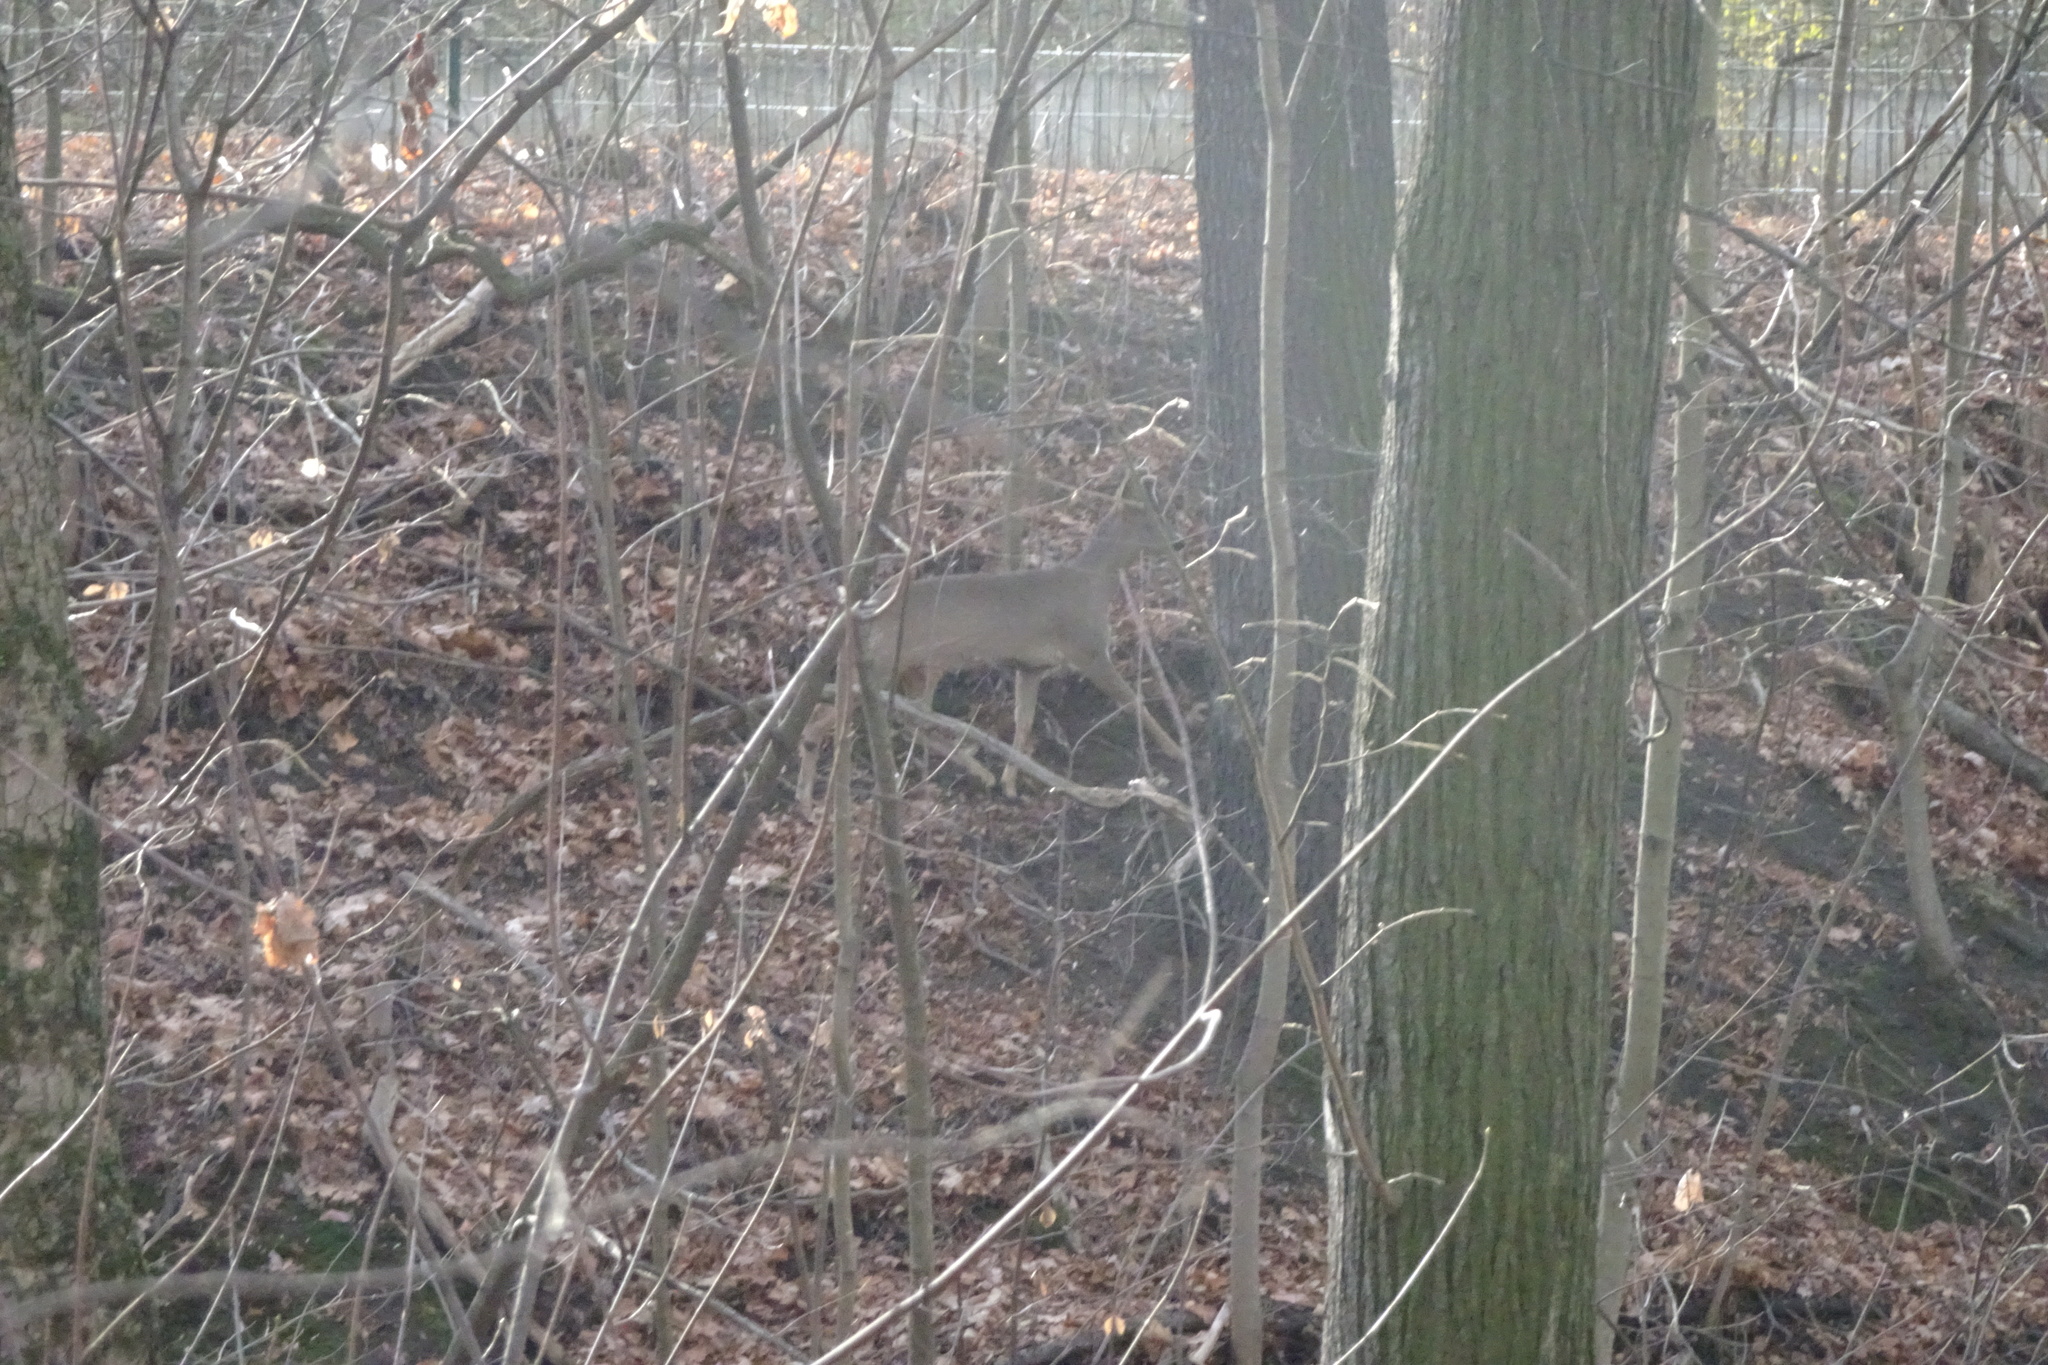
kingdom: Animalia
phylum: Chordata
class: Mammalia
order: Artiodactyla
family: Cervidae
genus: Capreolus
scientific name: Capreolus capreolus
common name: Western roe deer
